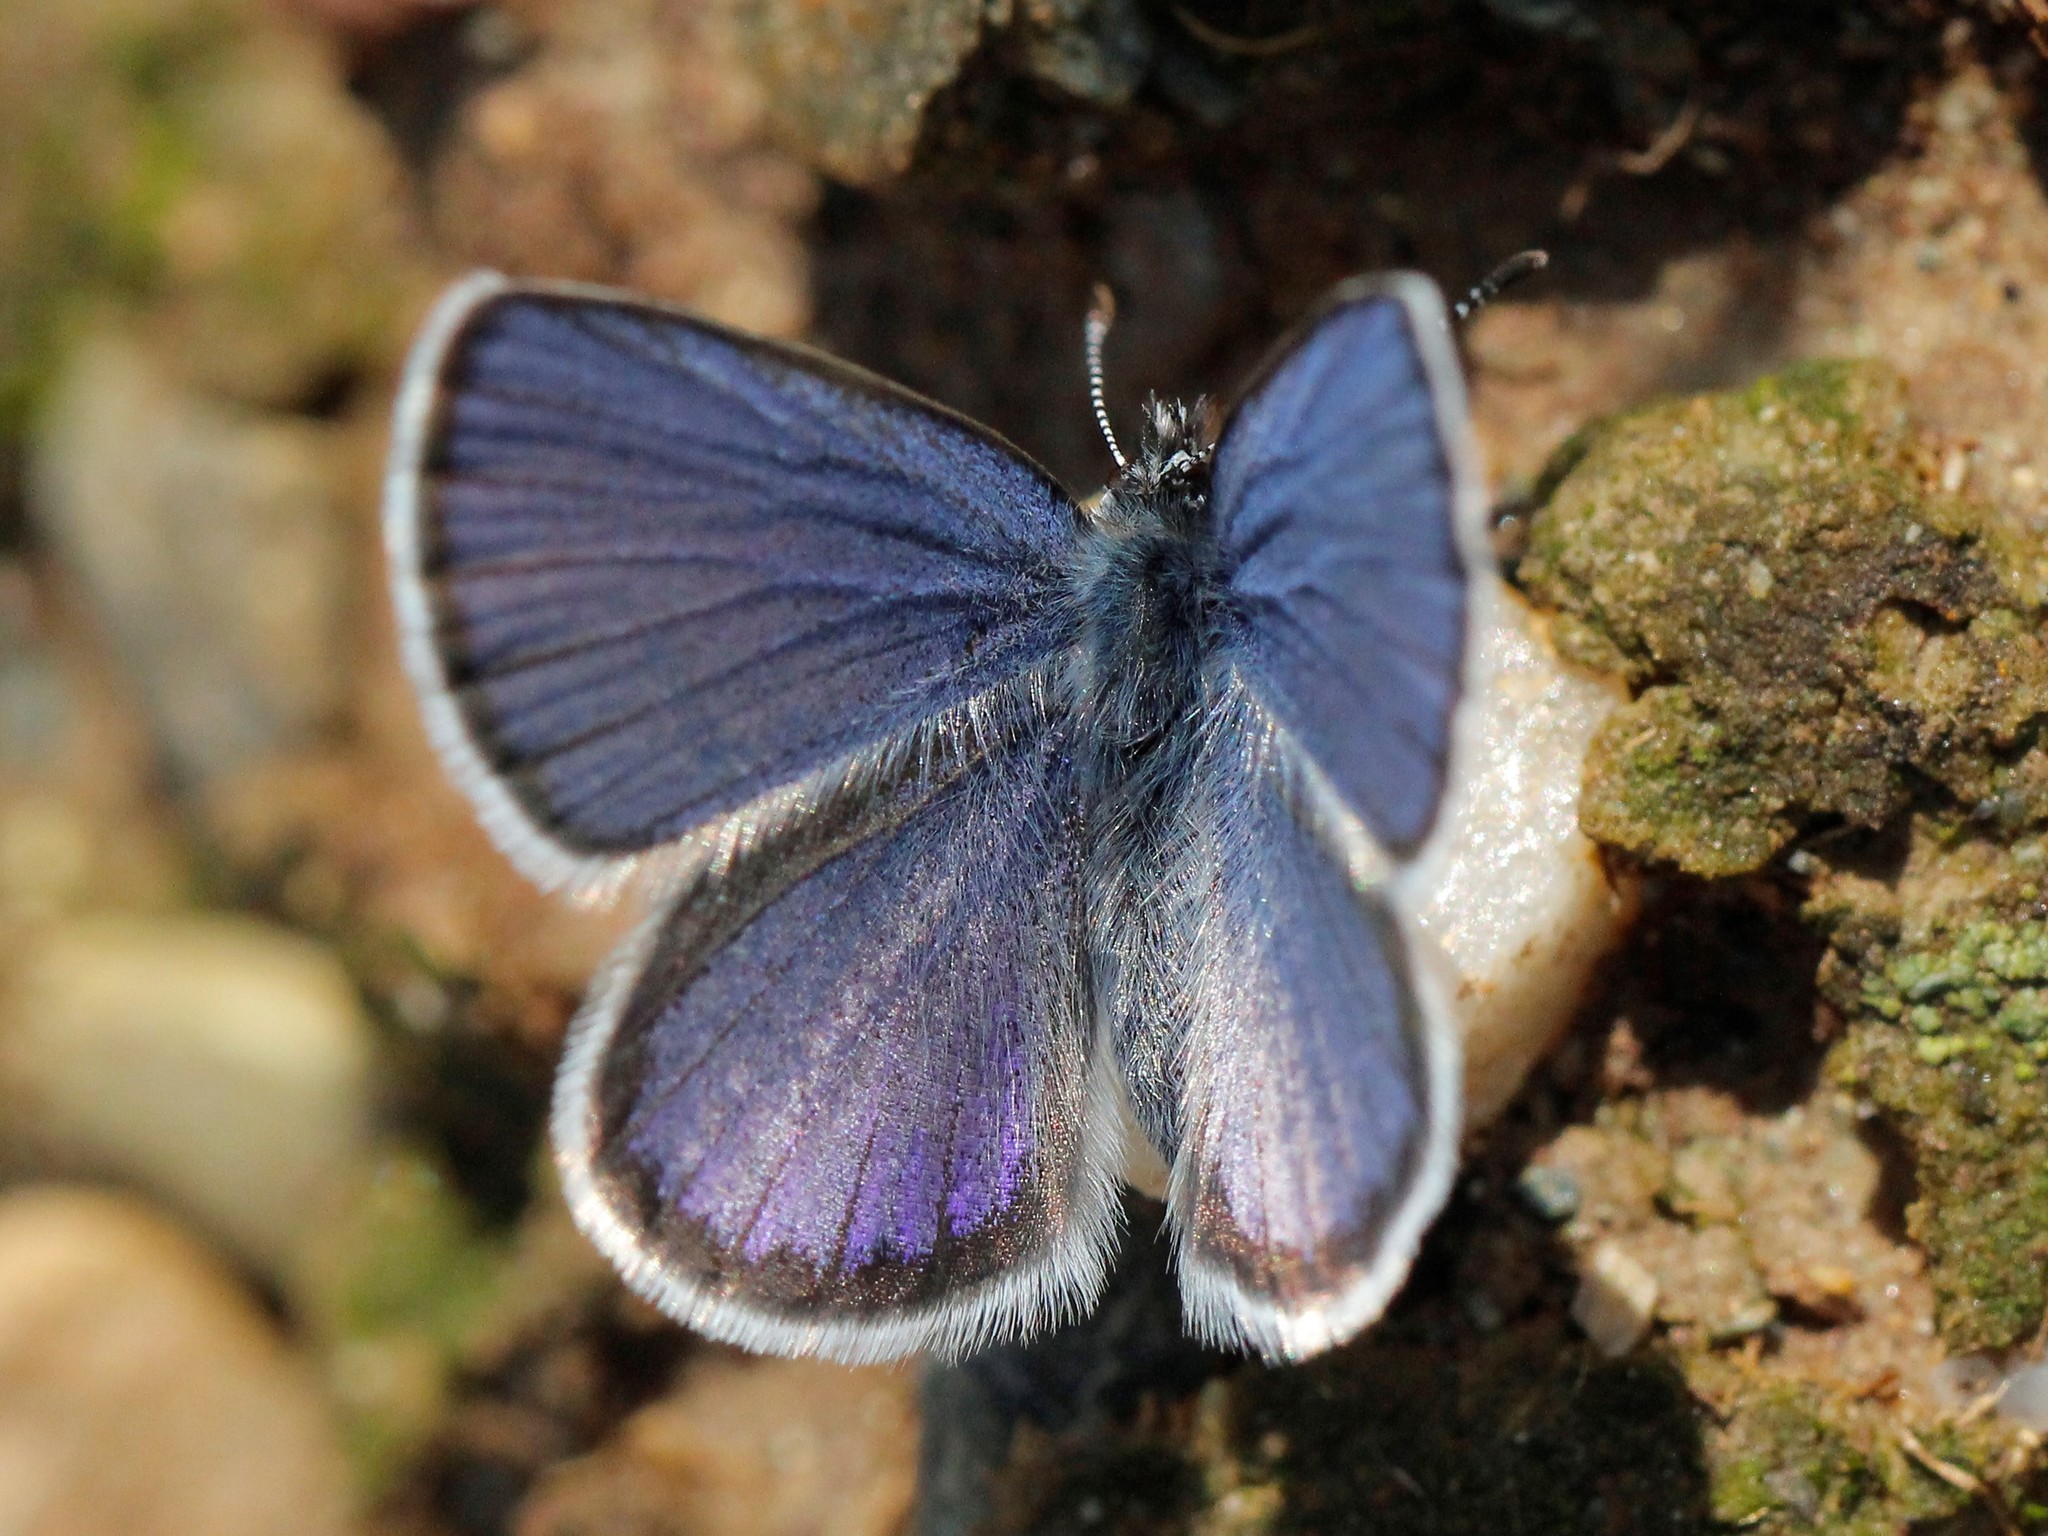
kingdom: Animalia
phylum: Arthropoda
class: Insecta
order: Lepidoptera
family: Lycaenidae
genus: Vacciniina
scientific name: Vacciniina optilete
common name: Cranberry blue
